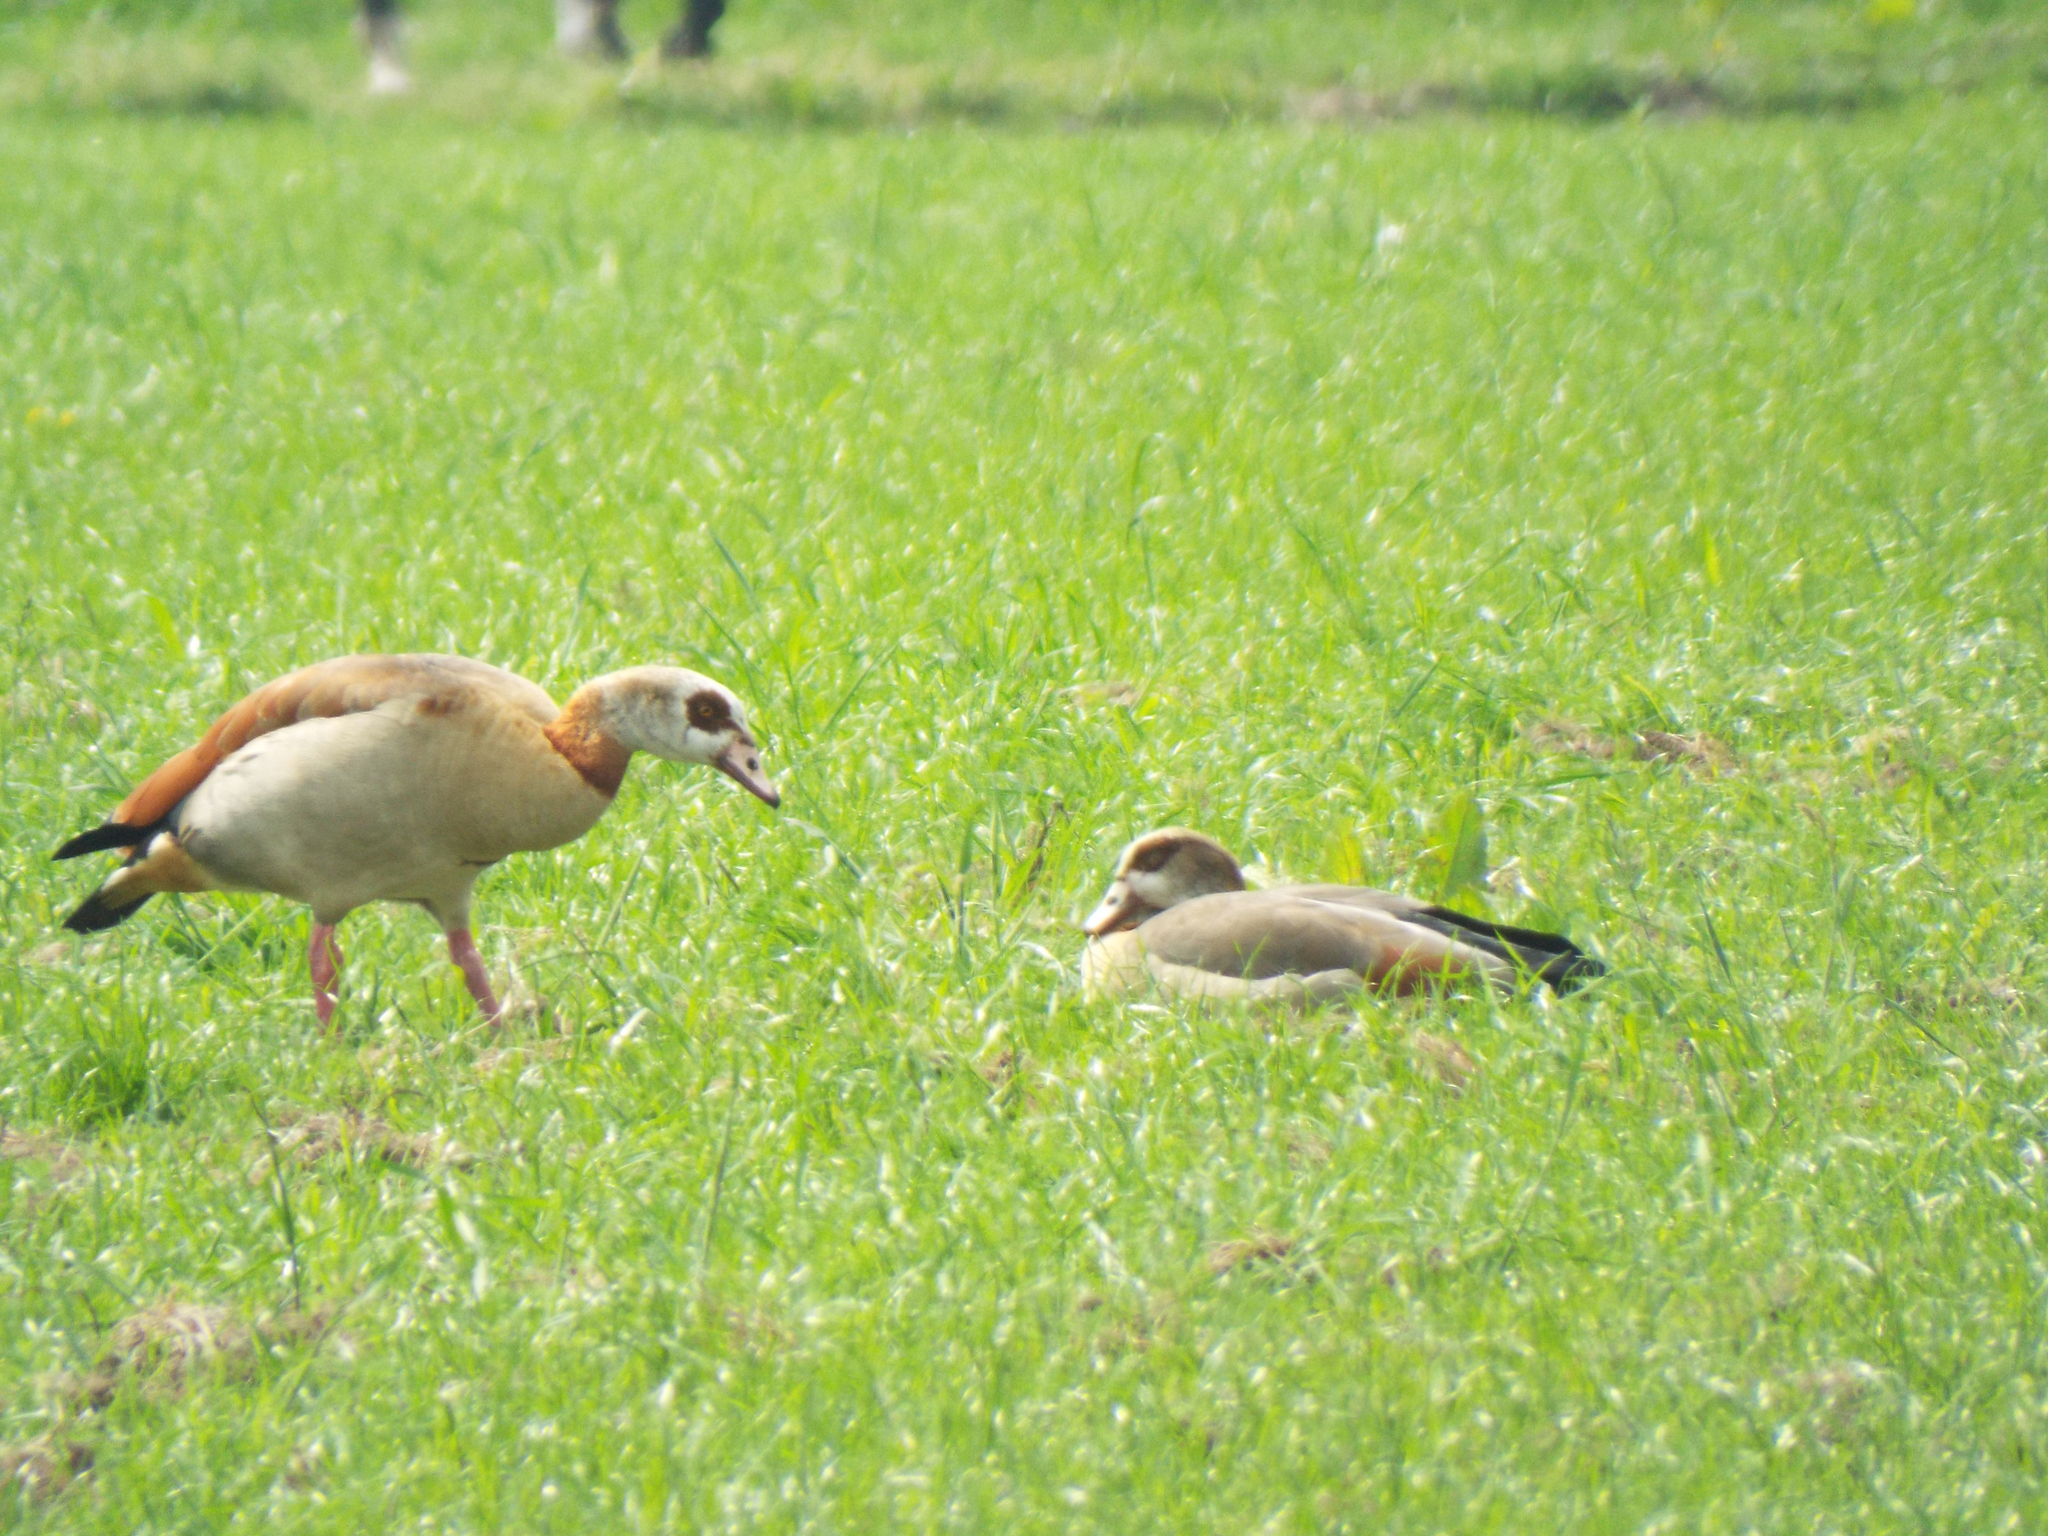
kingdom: Animalia
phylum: Chordata
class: Aves
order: Anseriformes
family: Anatidae
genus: Alopochen
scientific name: Alopochen aegyptiaca
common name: Egyptian goose
